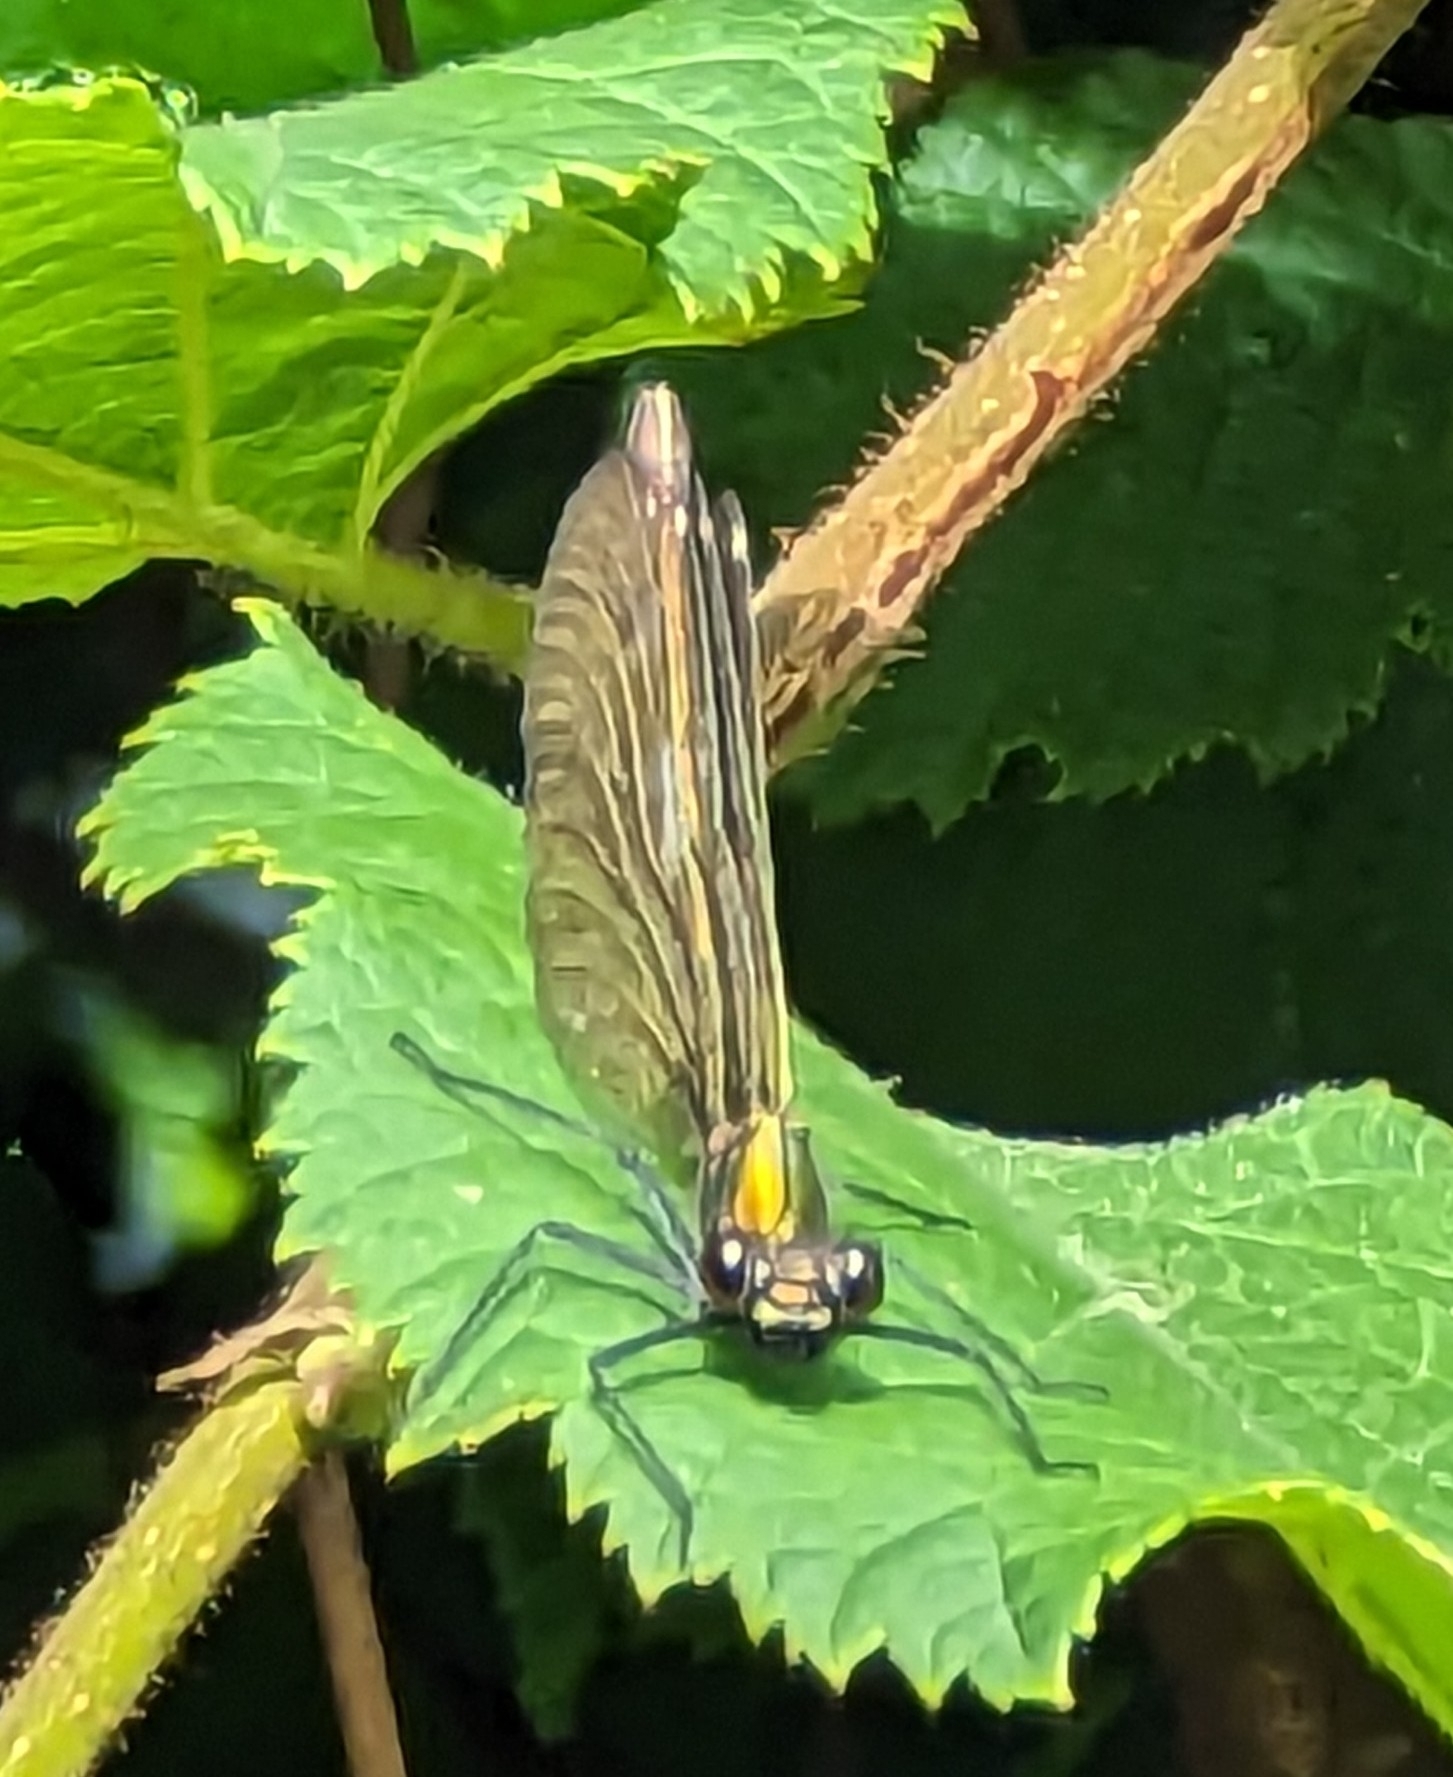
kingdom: Animalia
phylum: Arthropoda
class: Insecta
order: Odonata
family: Calopterygidae
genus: Calopteryx
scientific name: Calopteryx virgo
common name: Beautiful demoiselle
